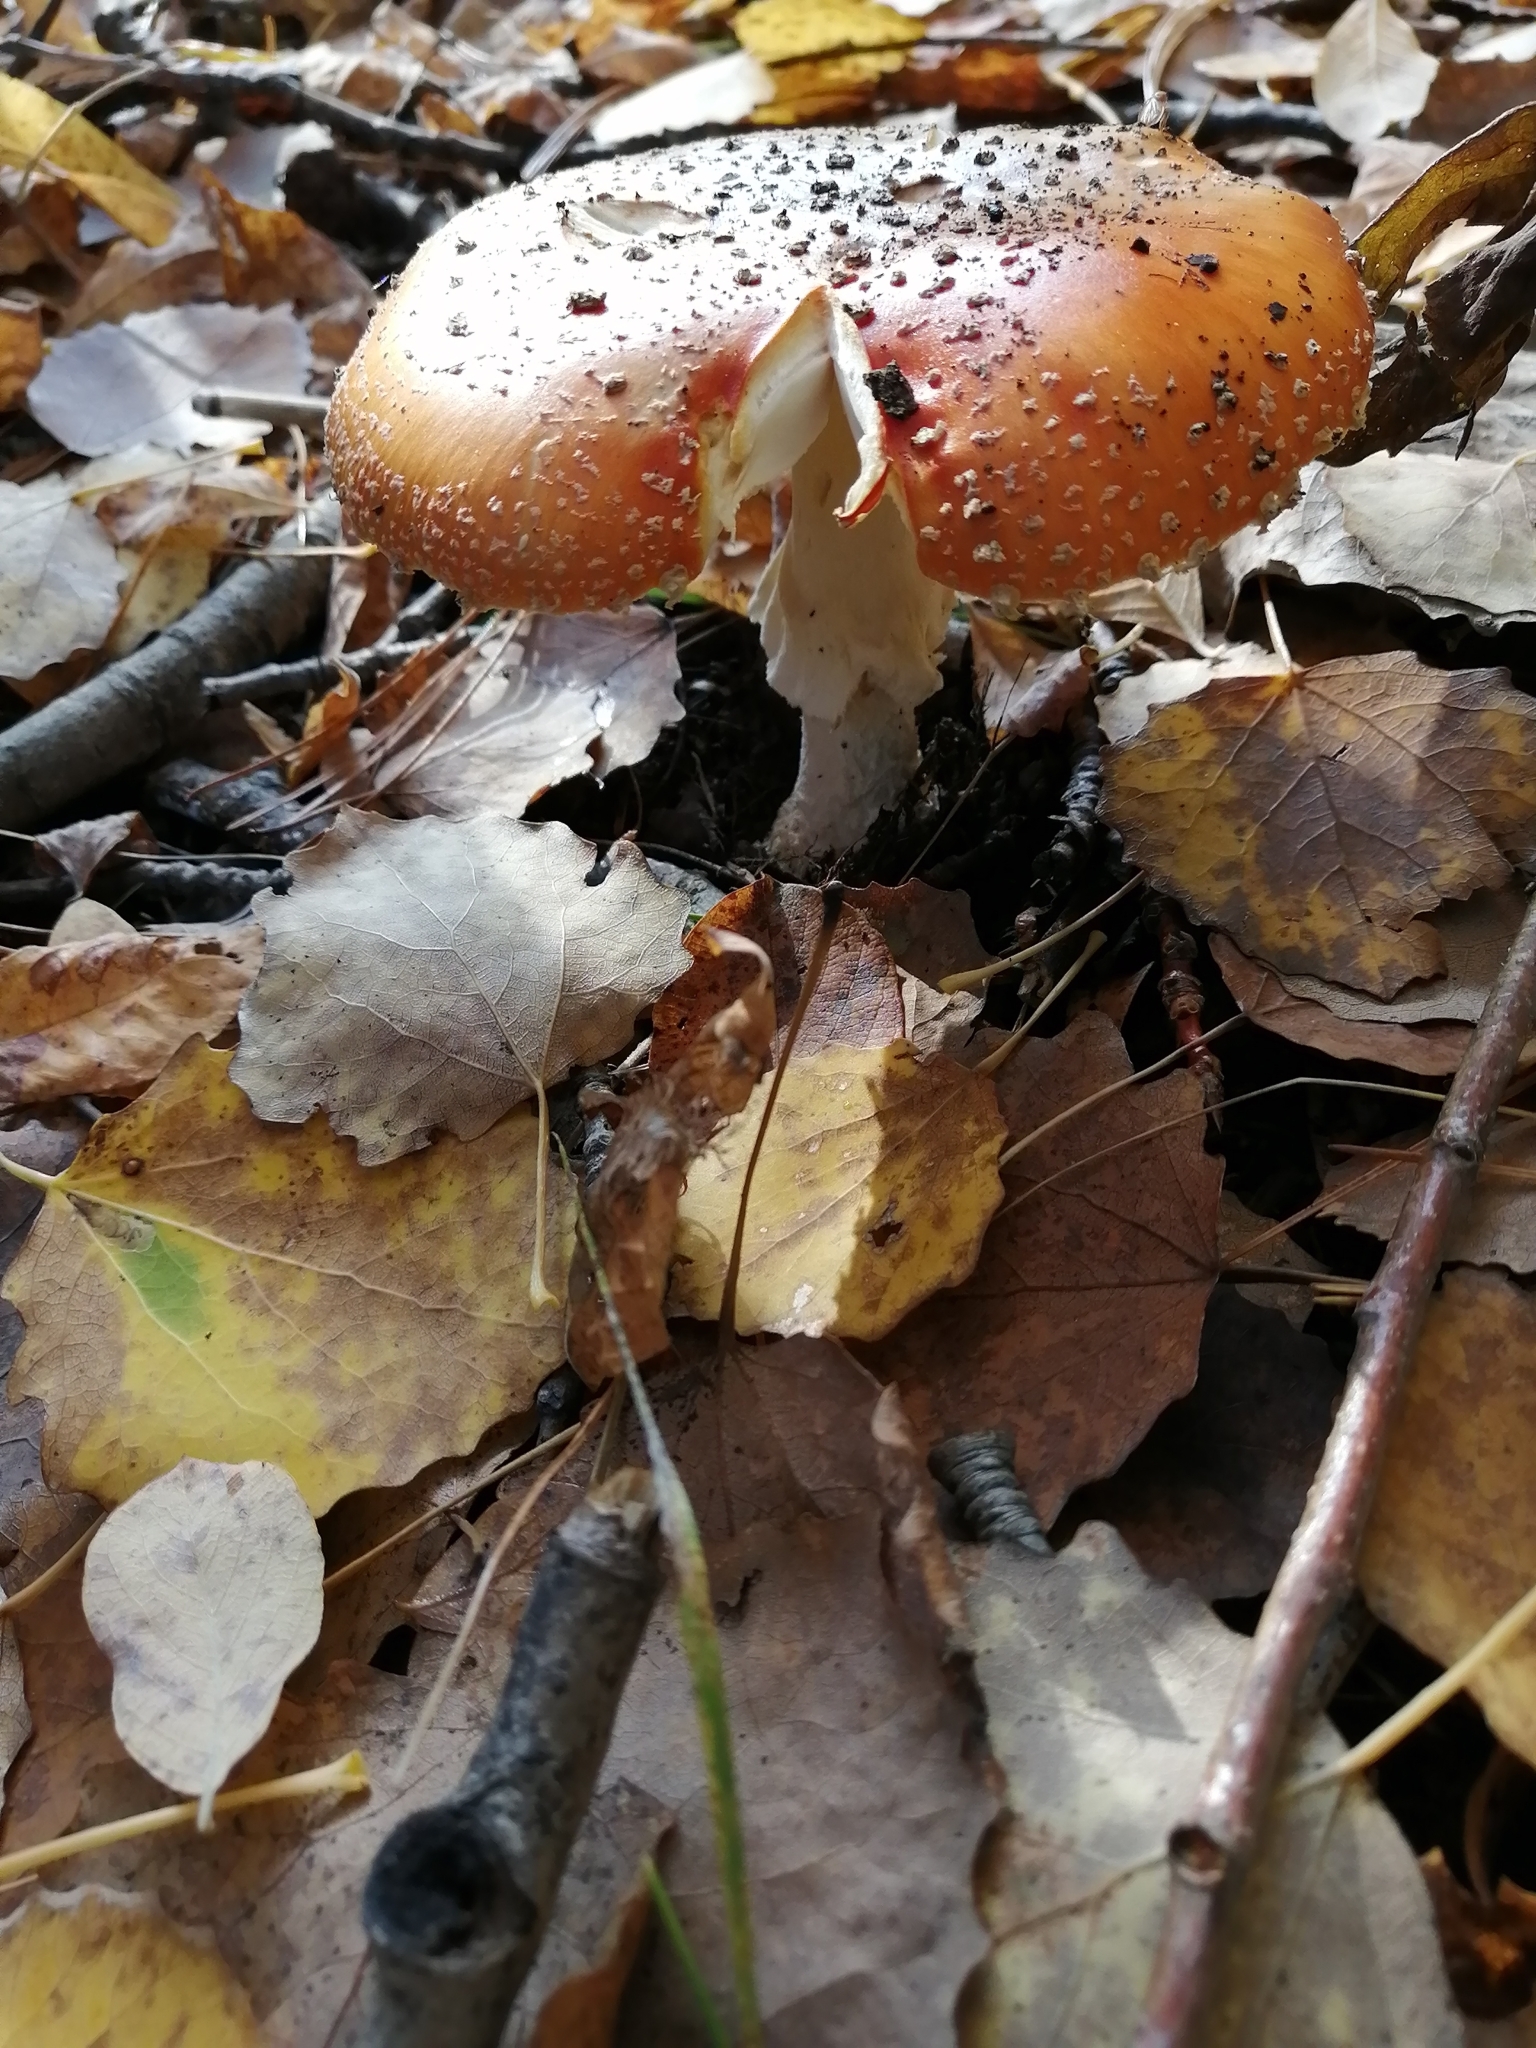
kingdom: Fungi
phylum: Basidiomycota
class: Agaricomycetes
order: Agaricales
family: Amanitaceae
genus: Amanita
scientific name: Amanita muscaria
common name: Fly agaric
